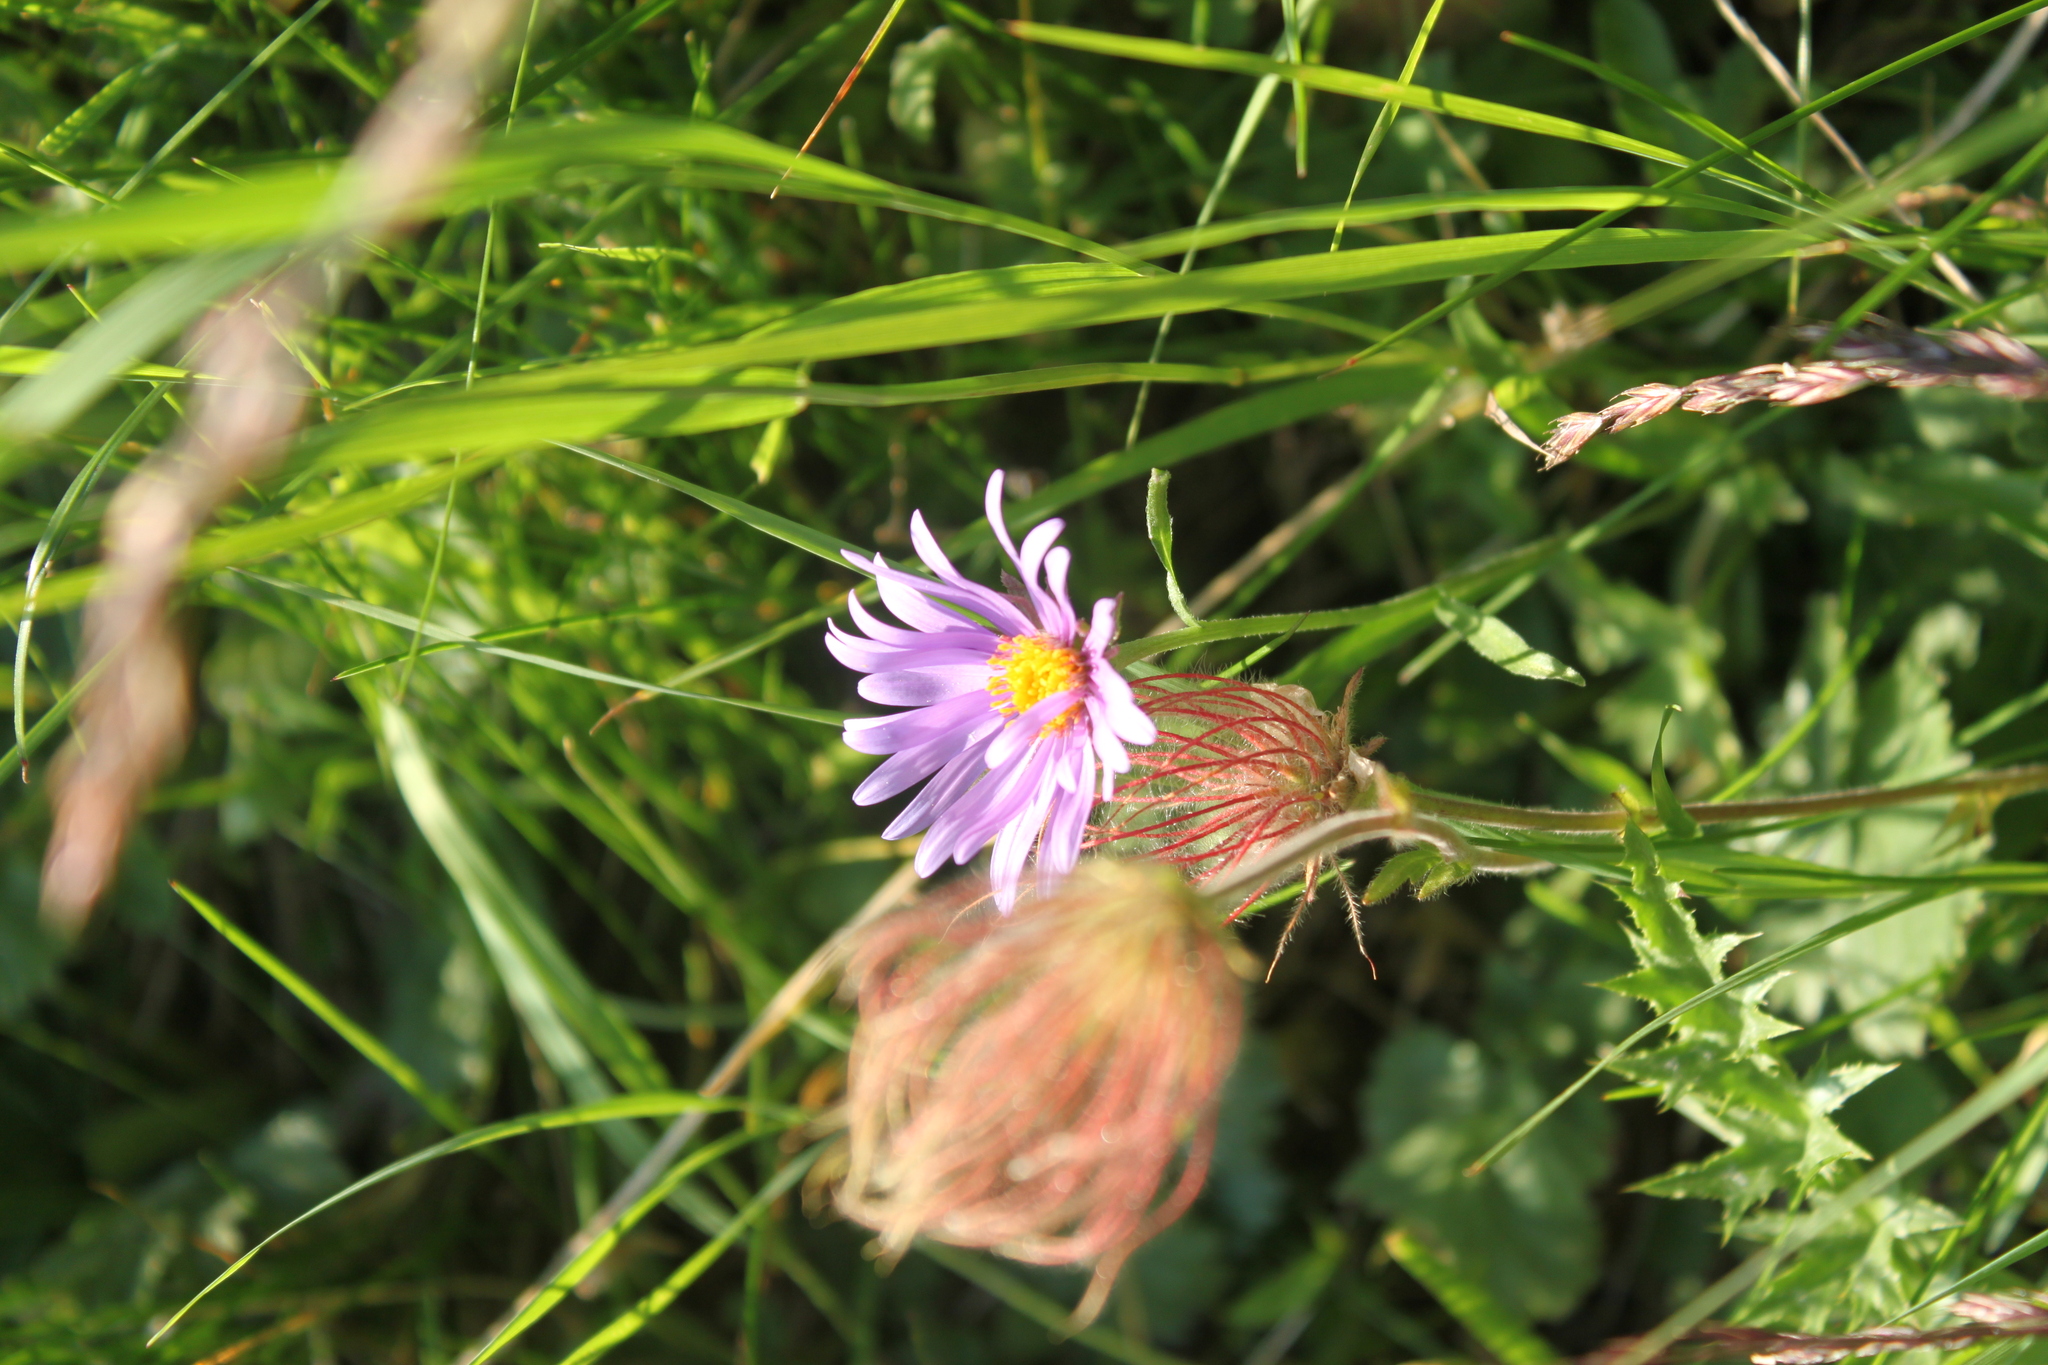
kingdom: Plantae
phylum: Tracheophyta
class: Magnoliopsida
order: Asterales
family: Asteraceae
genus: Aster
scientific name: Aster alpinus
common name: Alpine aster
